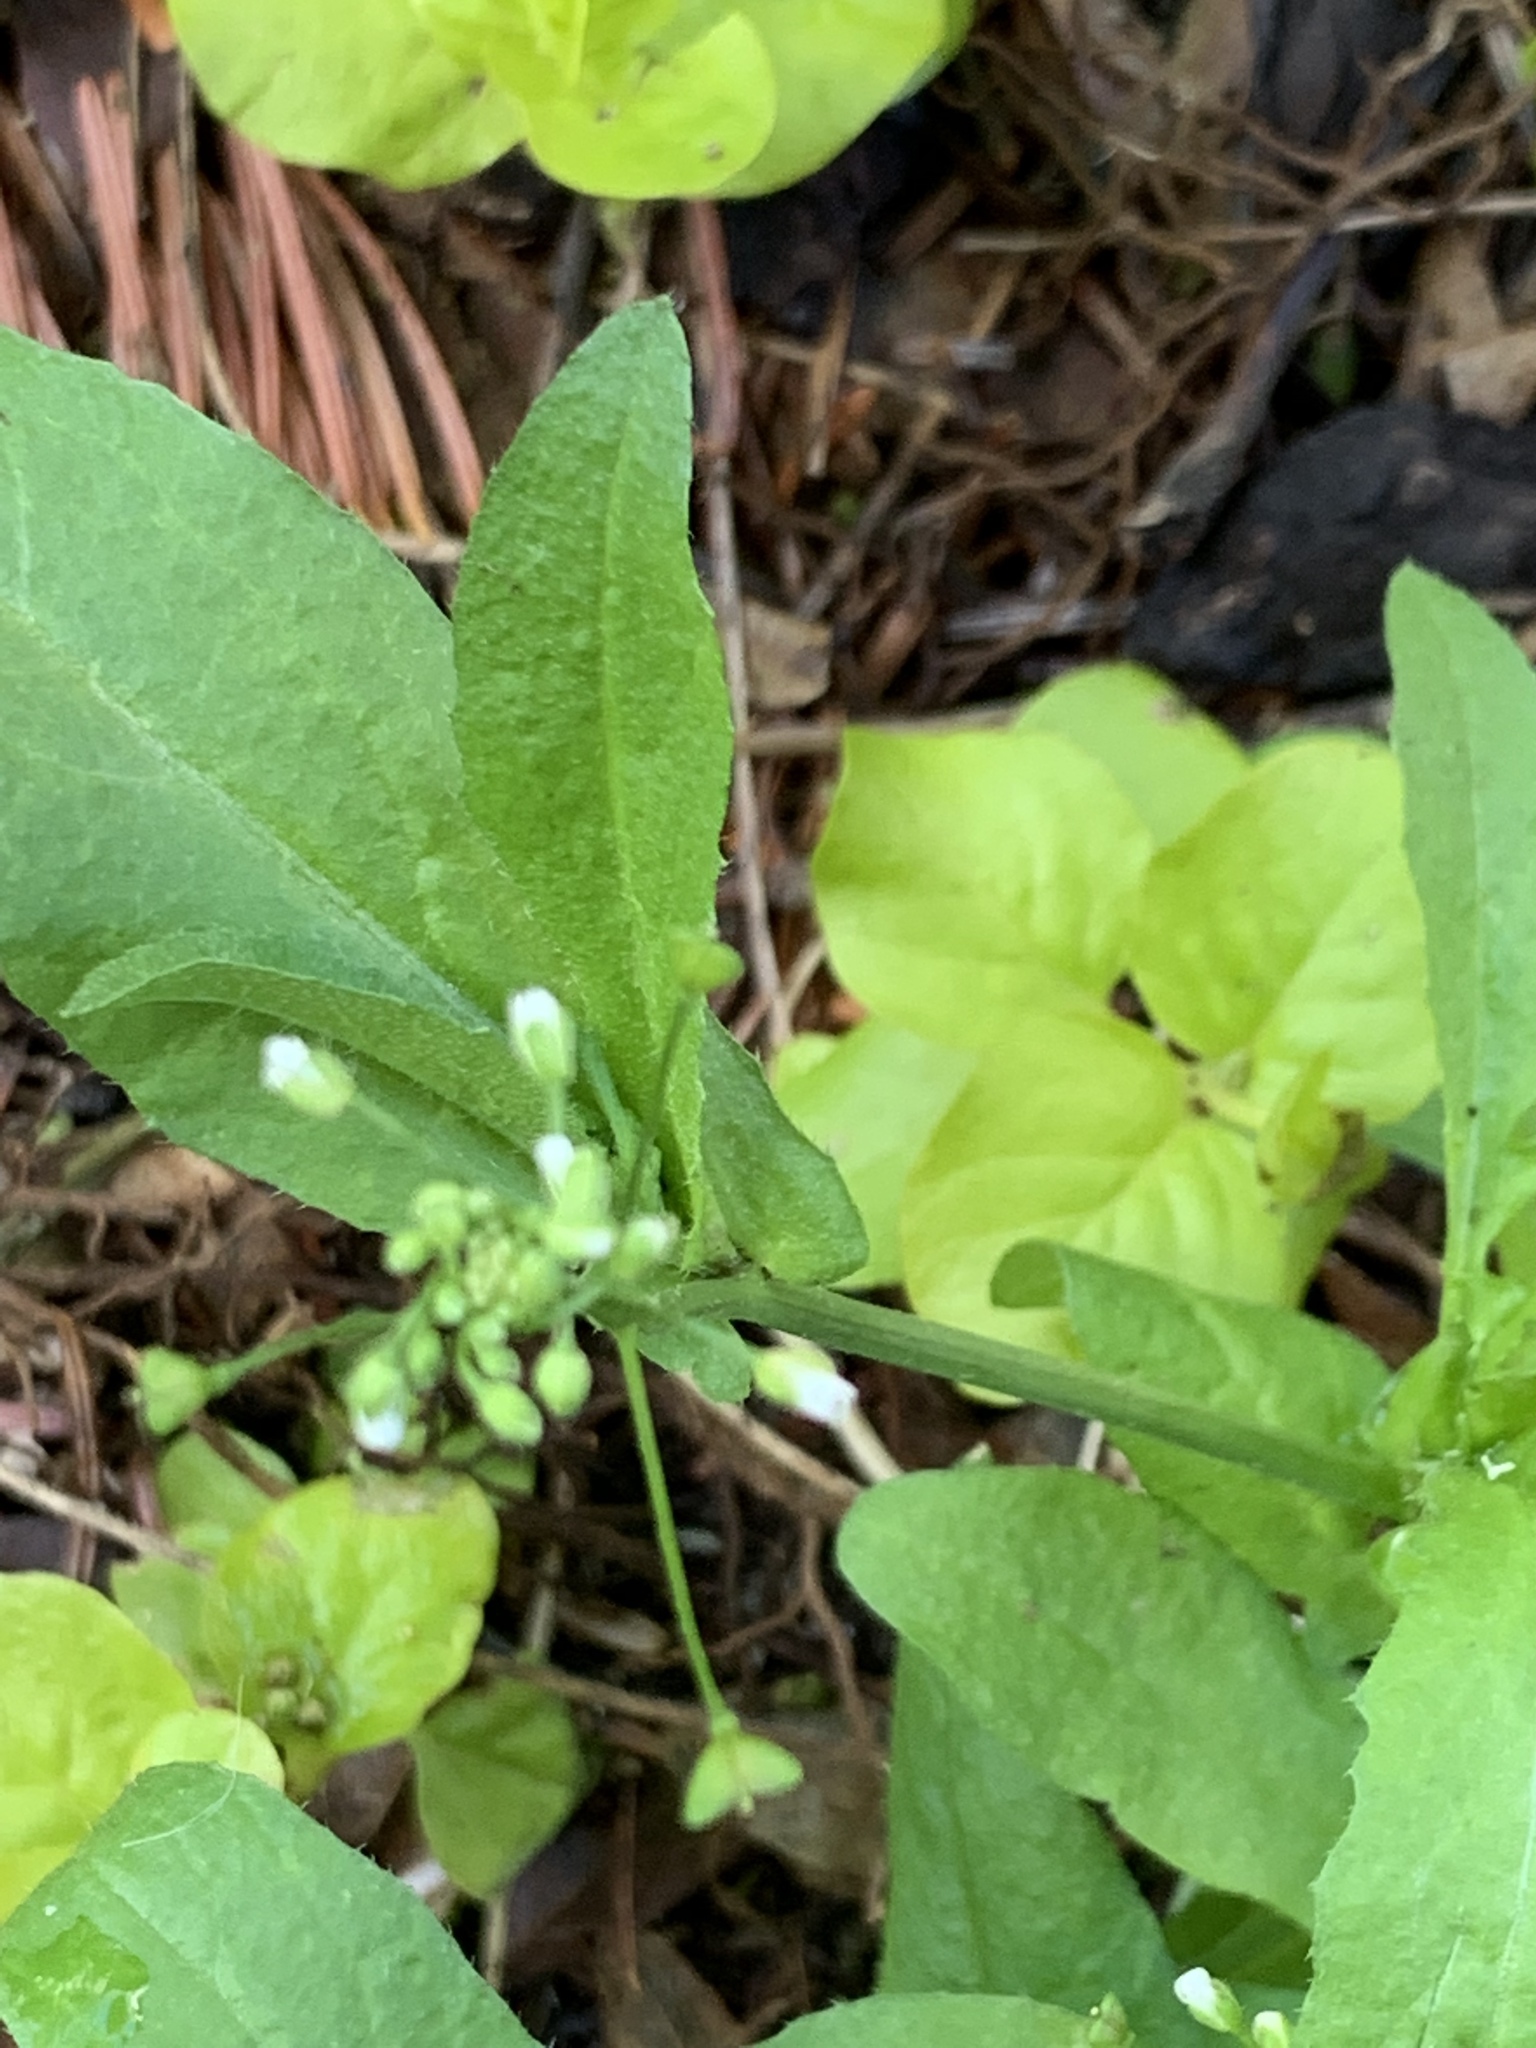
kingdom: Plantae
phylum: Tracheophyta
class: Magnoliopsida
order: Brassicales
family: Brassicaceae
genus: Capsella
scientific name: Capsella bursa-pastoris
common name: Shepherd's purse
